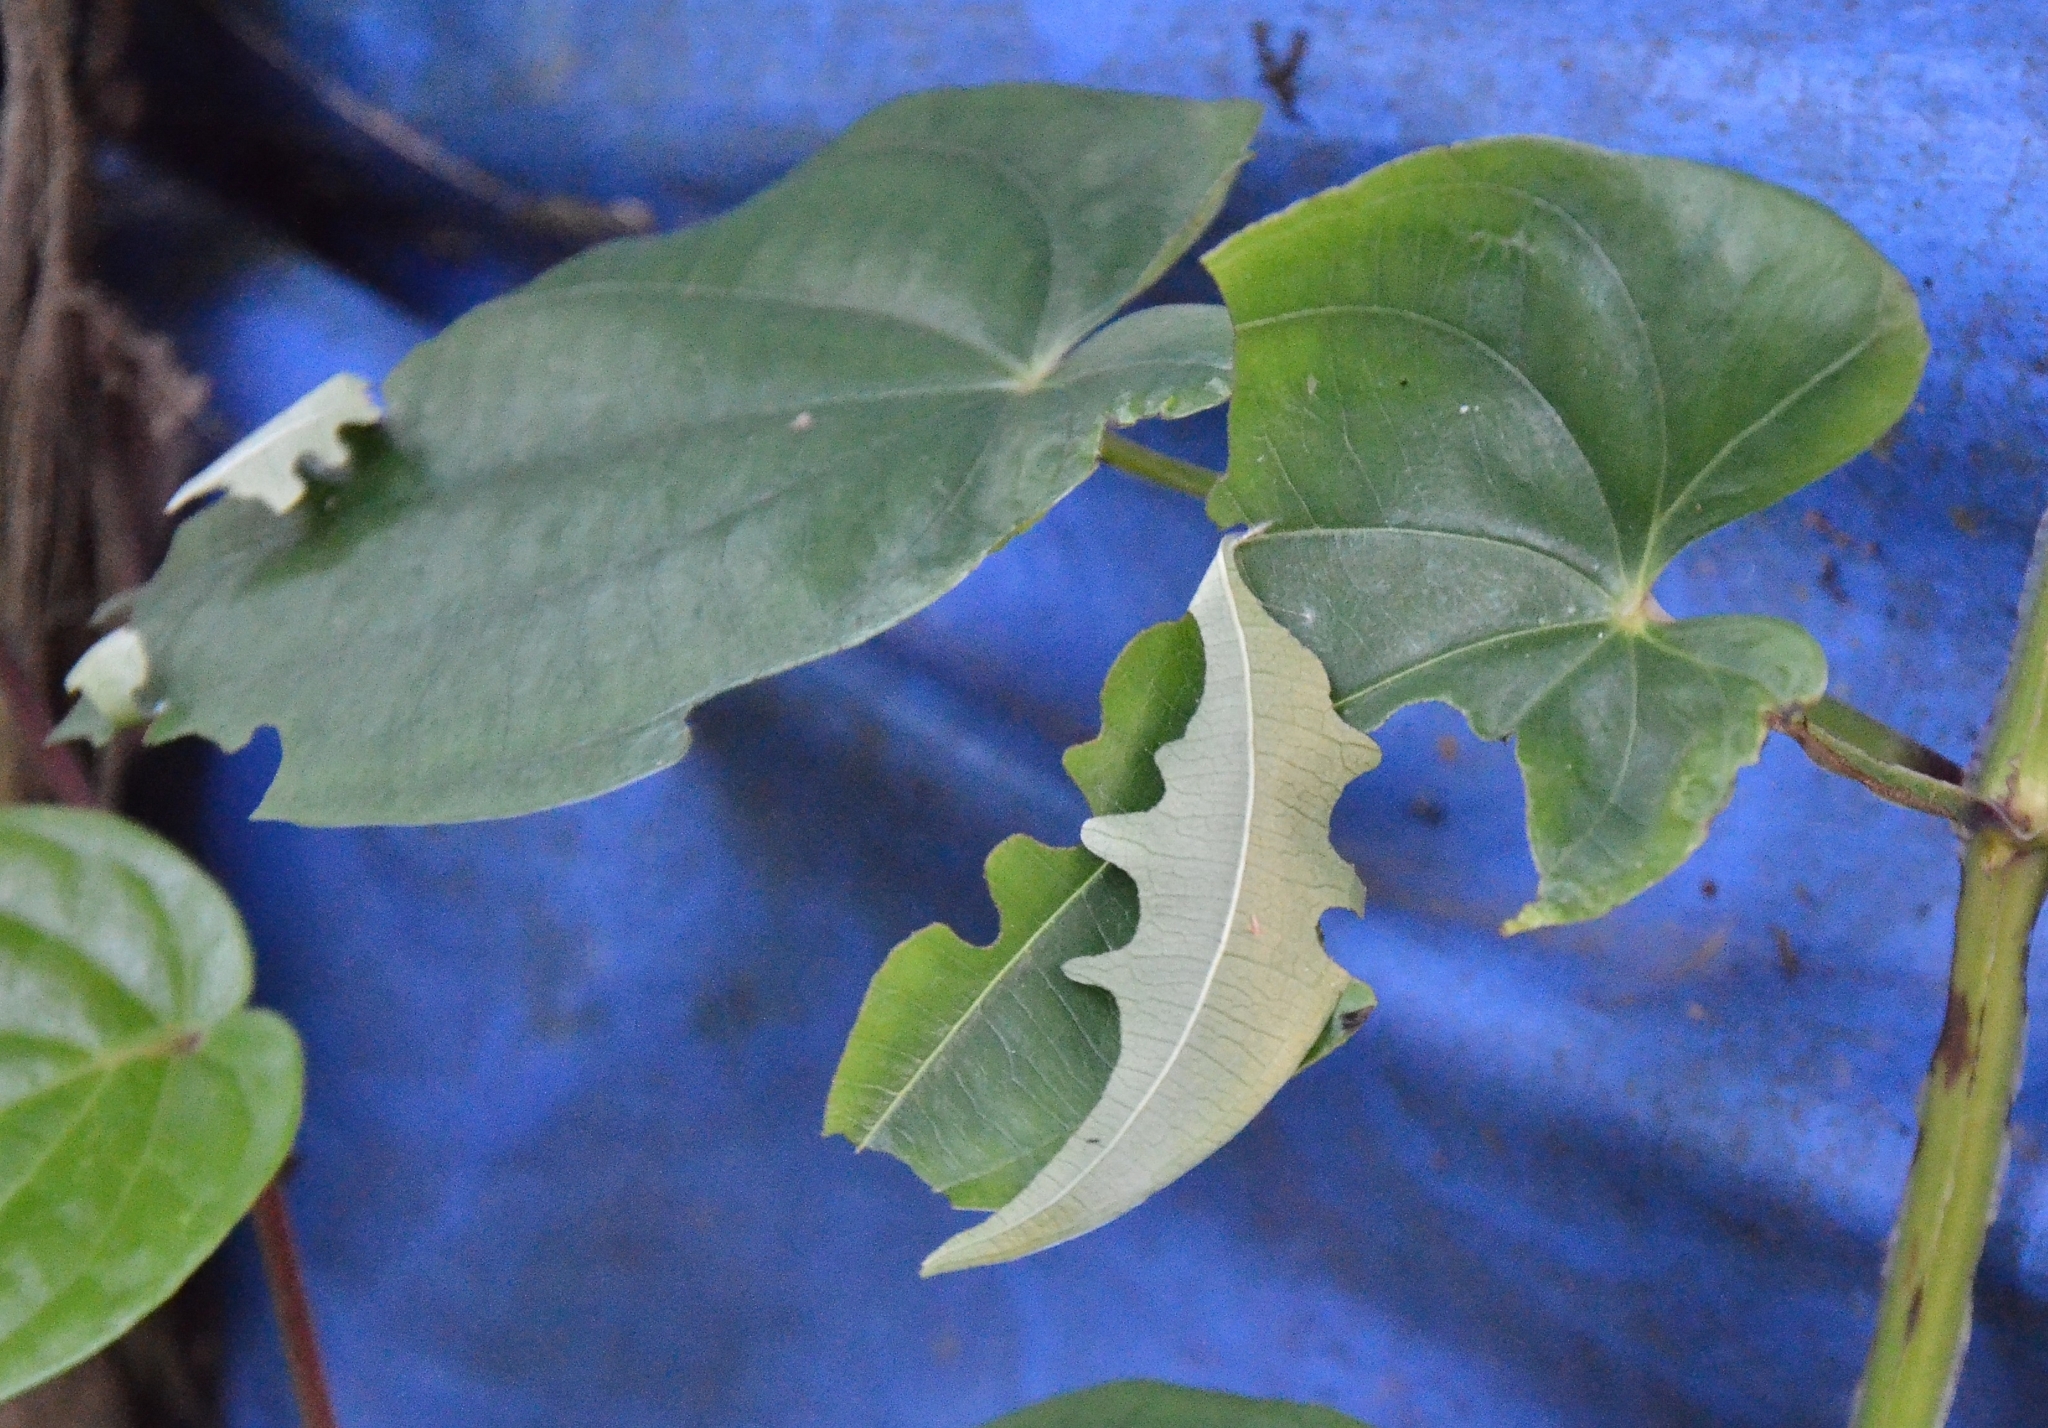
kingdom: Animalia
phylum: Arthropoda
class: Insecta
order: Lepidoptera
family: Hesperiidae
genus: Tagiades
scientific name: Tagiades litigiosa
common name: Water snow flat
